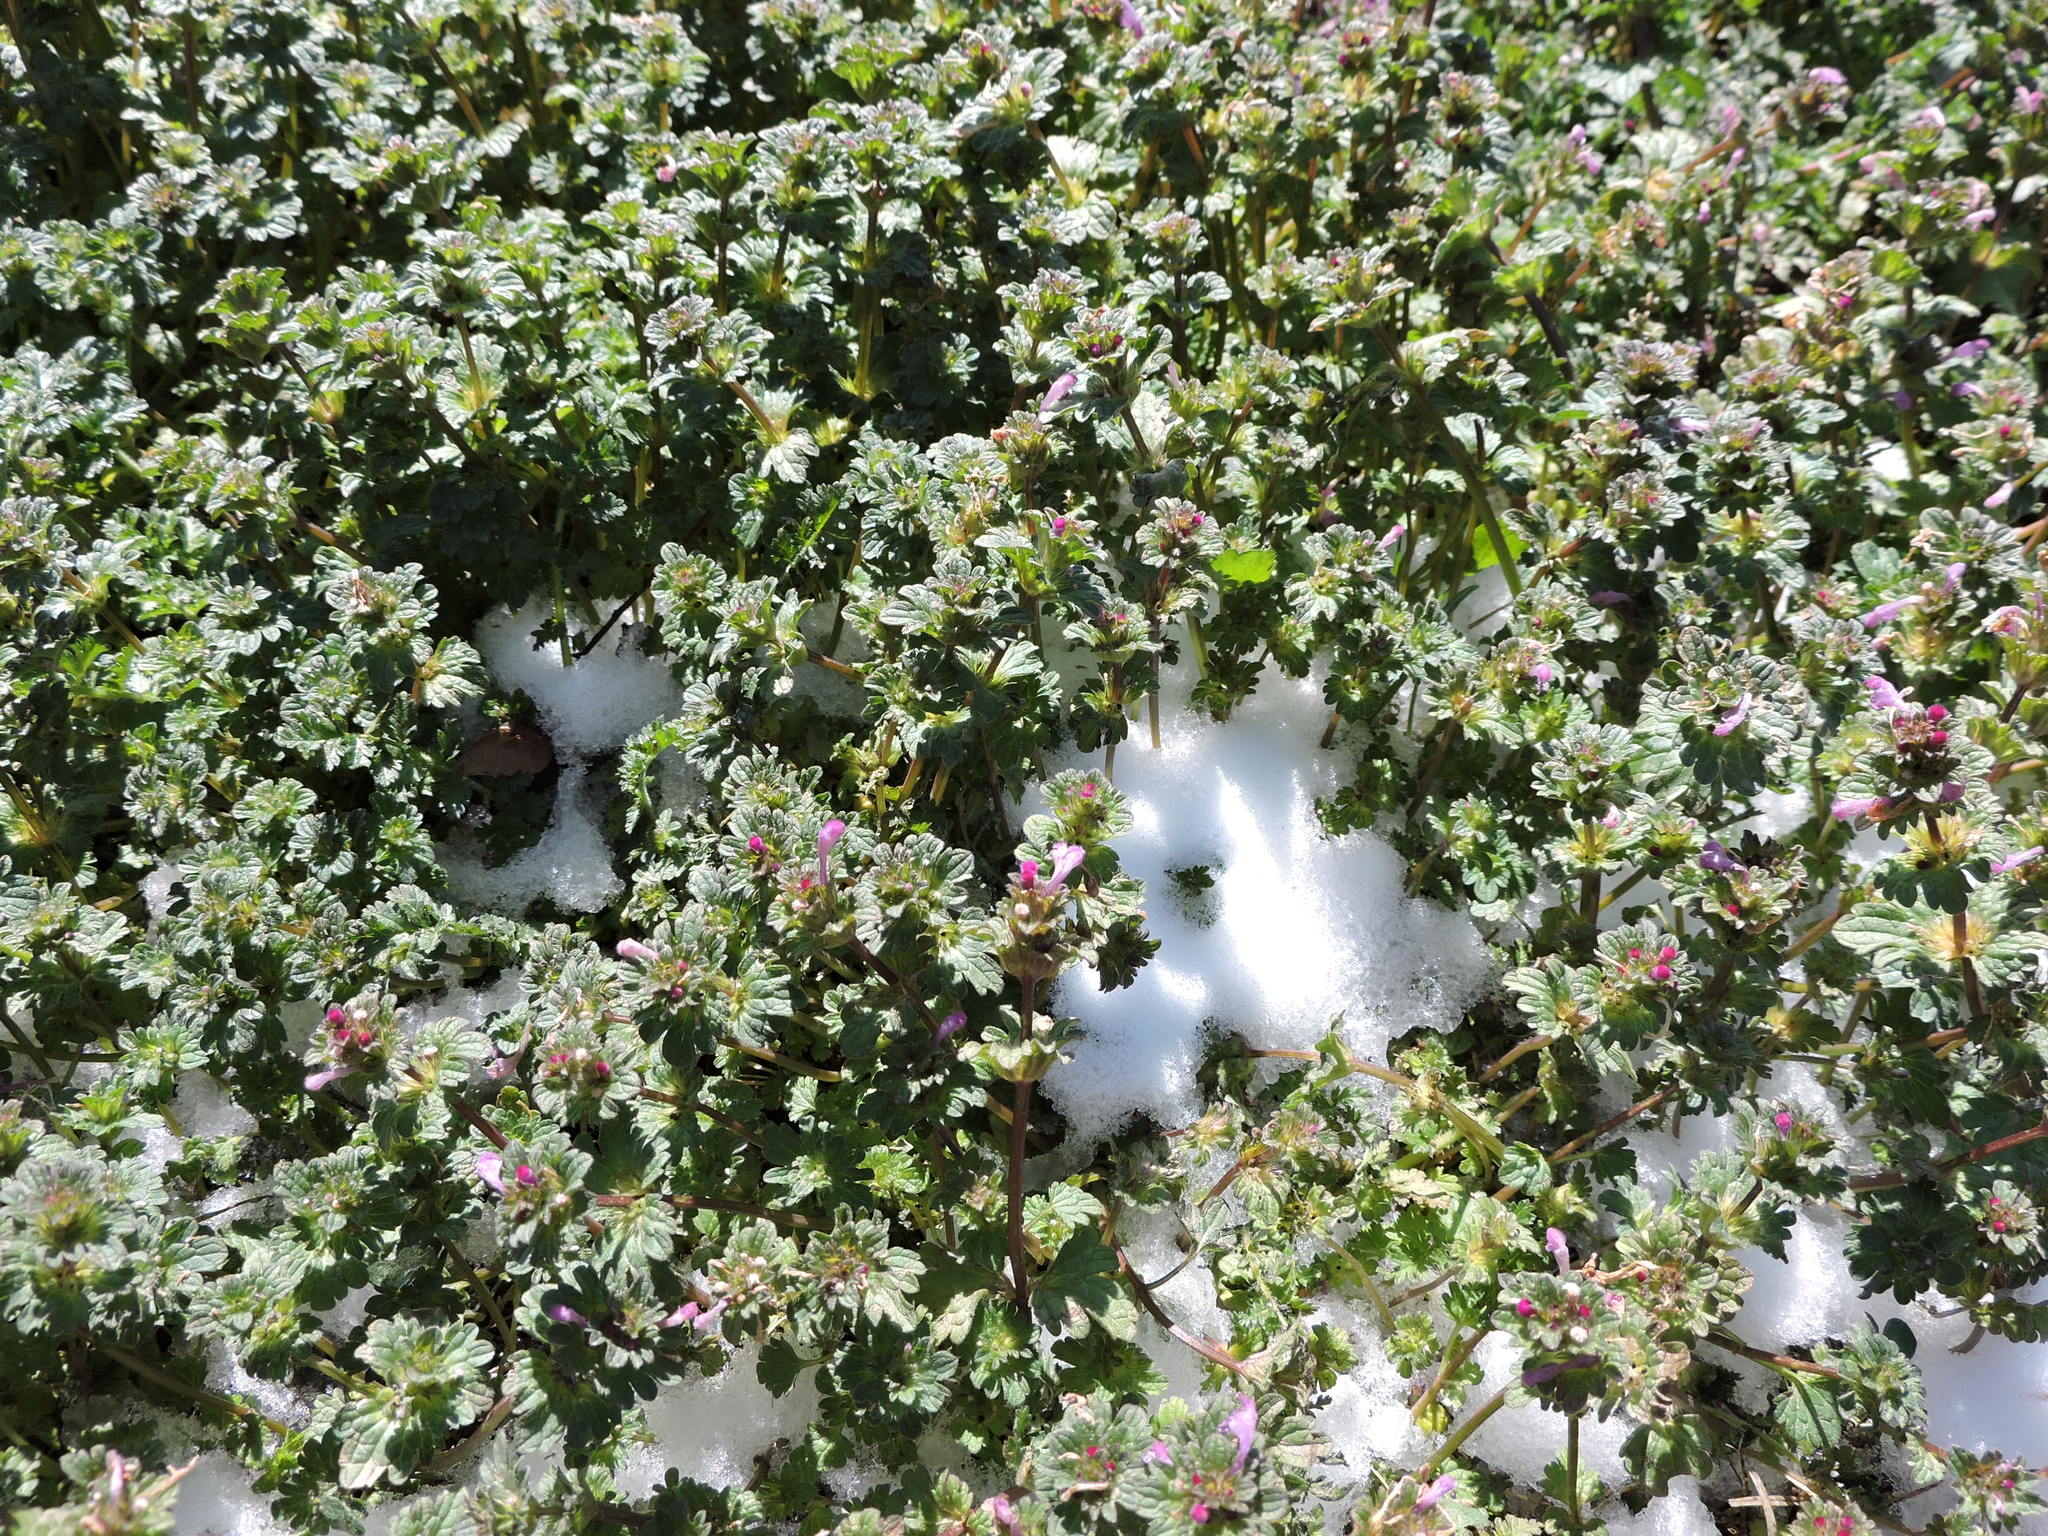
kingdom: Plantae
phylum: Tracheophyta
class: Magnoliopsida
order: Lamiales
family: Lamiaceae
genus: Lamium
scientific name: Lamium amplexicaule
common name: Henbit dead-nettle
